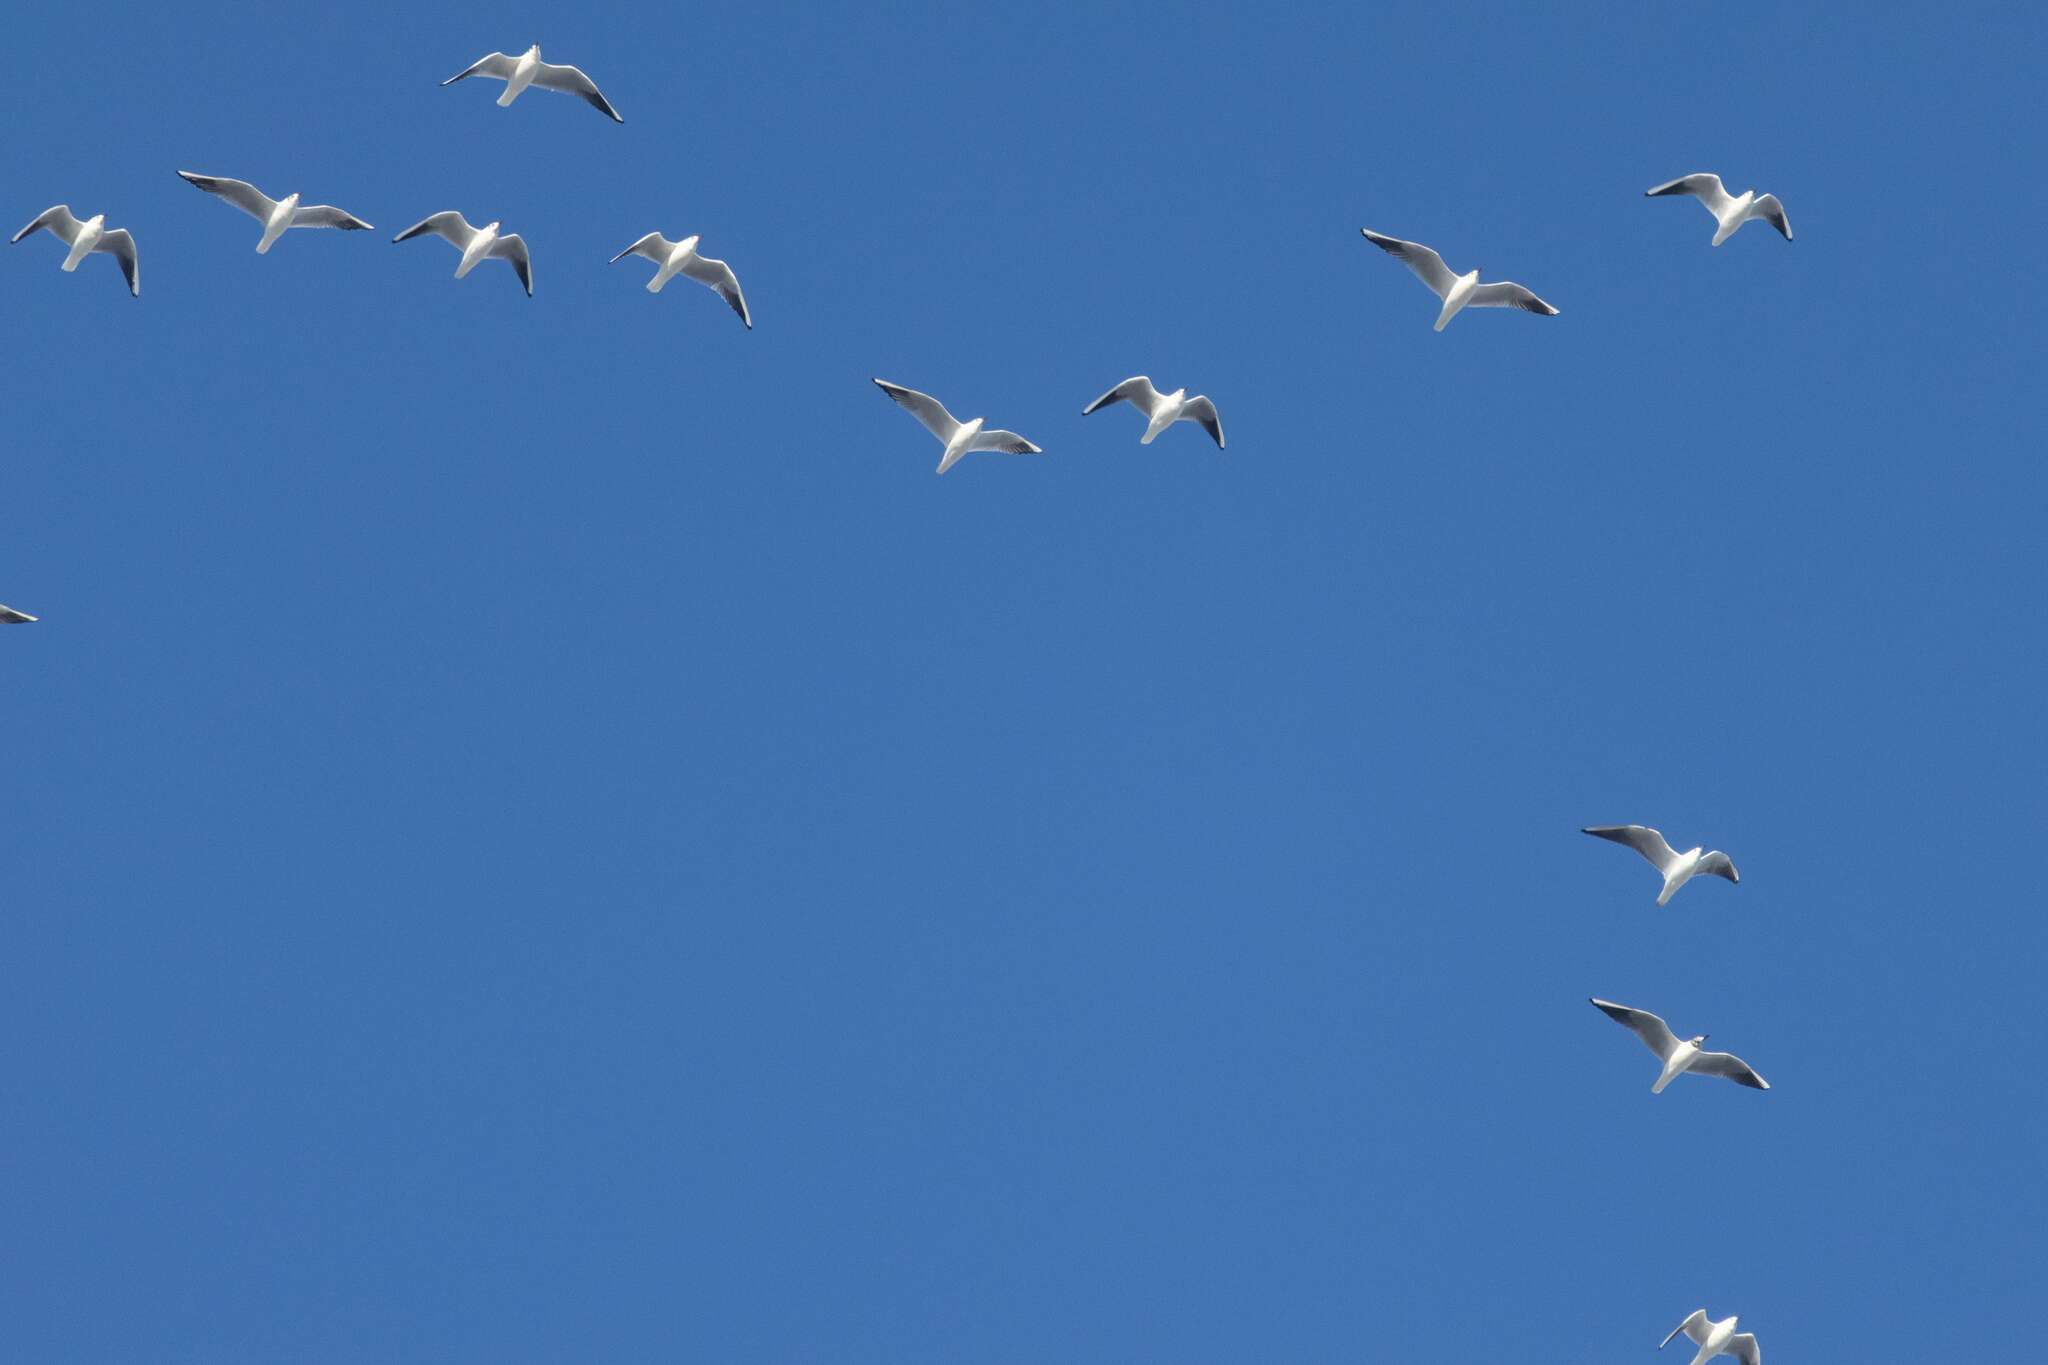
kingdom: Animalia
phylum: Chordata
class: Aves
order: Charadriiformes
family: Laridae
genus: Chroicocephalus
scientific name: Chroicocephalus ridibundus
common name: Black-headed gull
